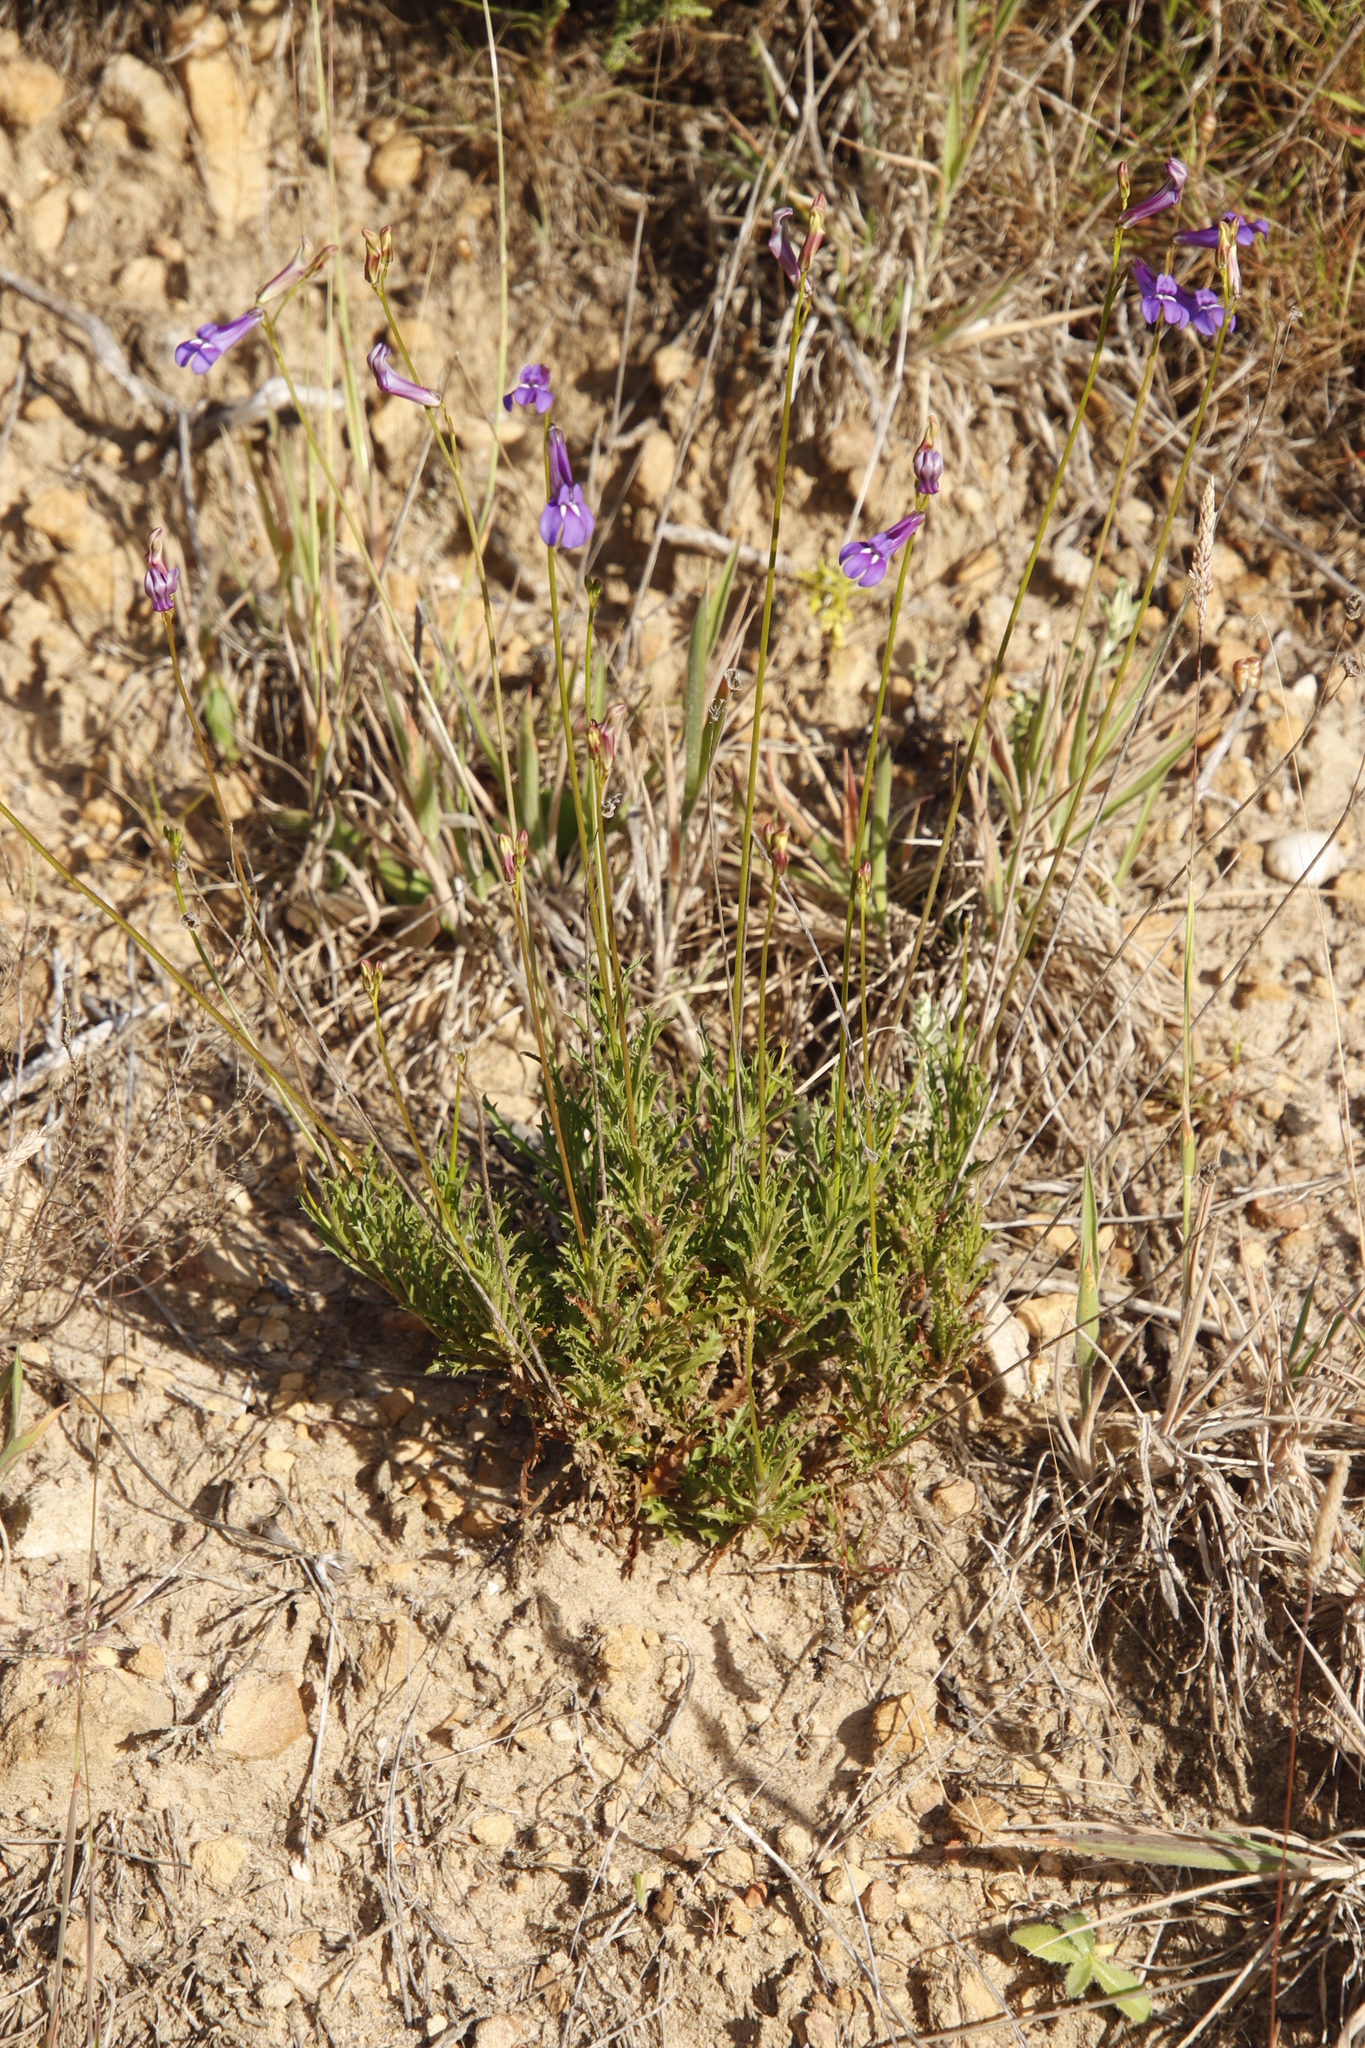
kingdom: Plantae
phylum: Tracheophyta
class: Magnoliopsida
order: Asterales
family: Campanulaceae
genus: Lobelia
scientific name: Lobelia coronopifolia
